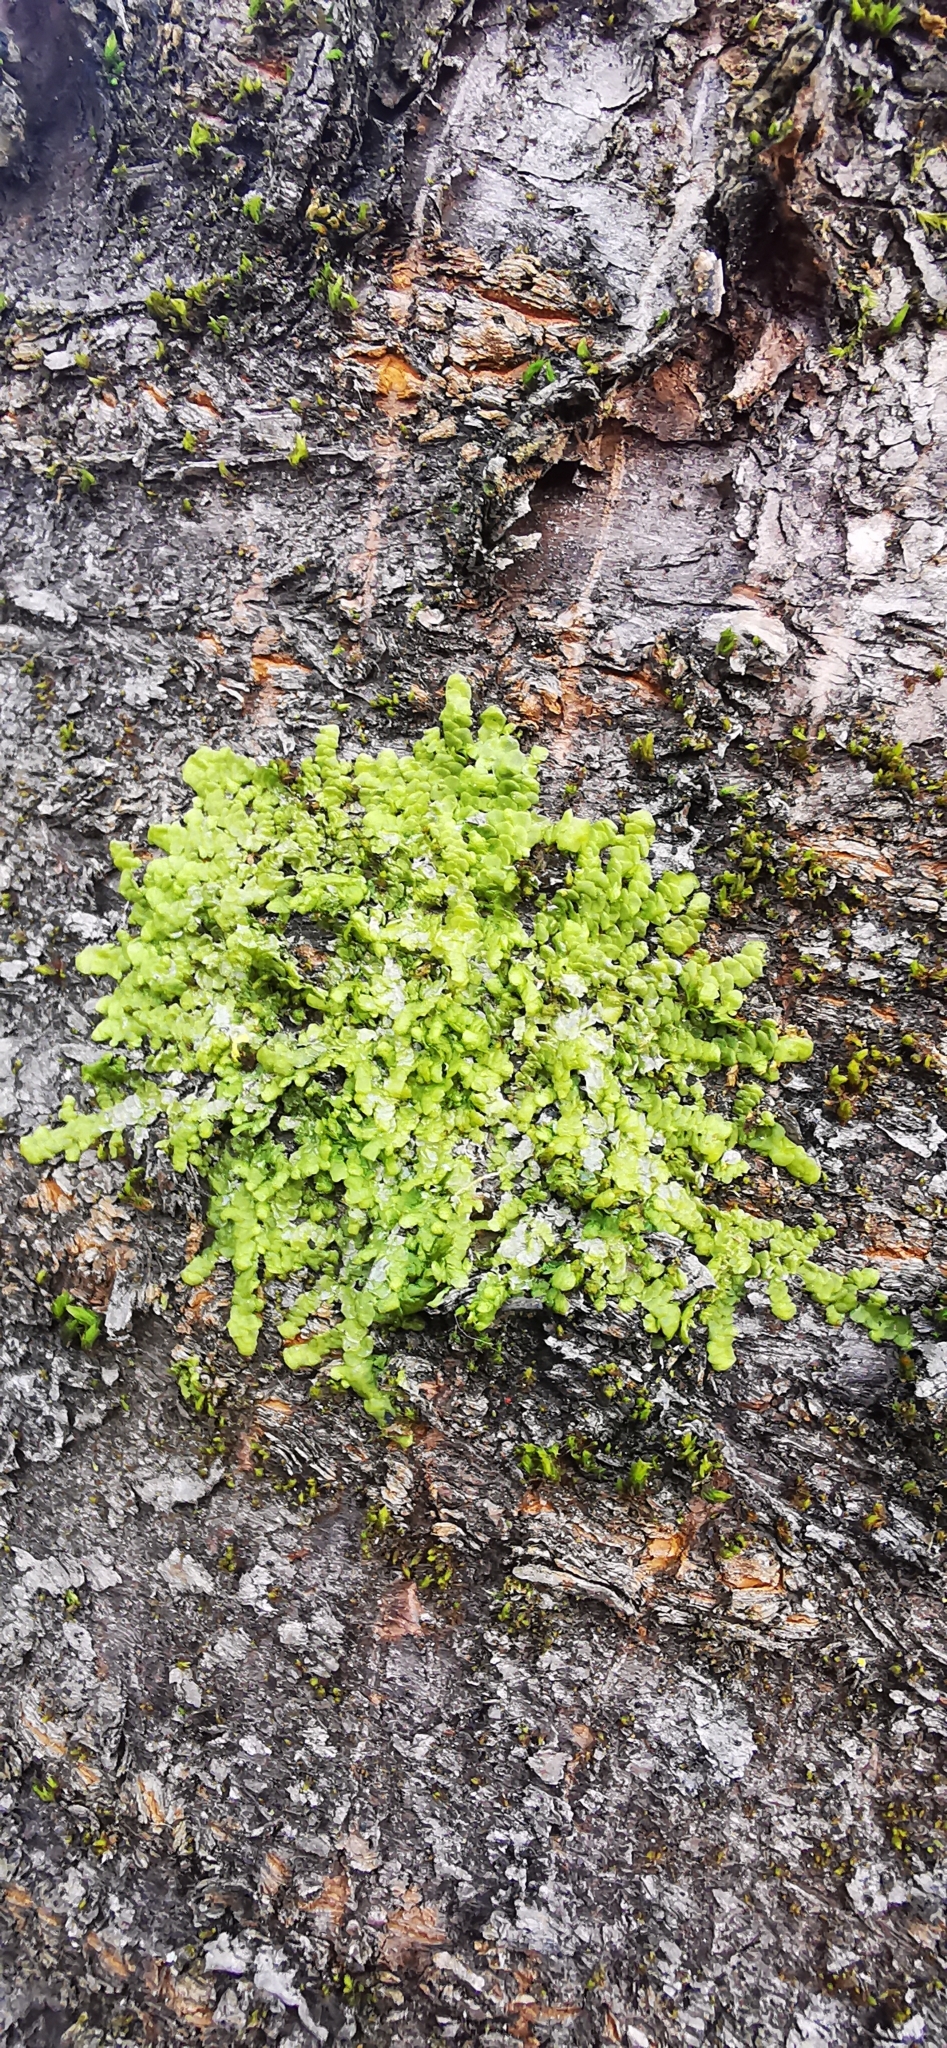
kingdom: Plantae
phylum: Marchantiophyta
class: Jungermanniopsida
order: Porellales
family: Radulaceae
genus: Radula
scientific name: Radula complanata
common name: Flat-leaved scalewort
